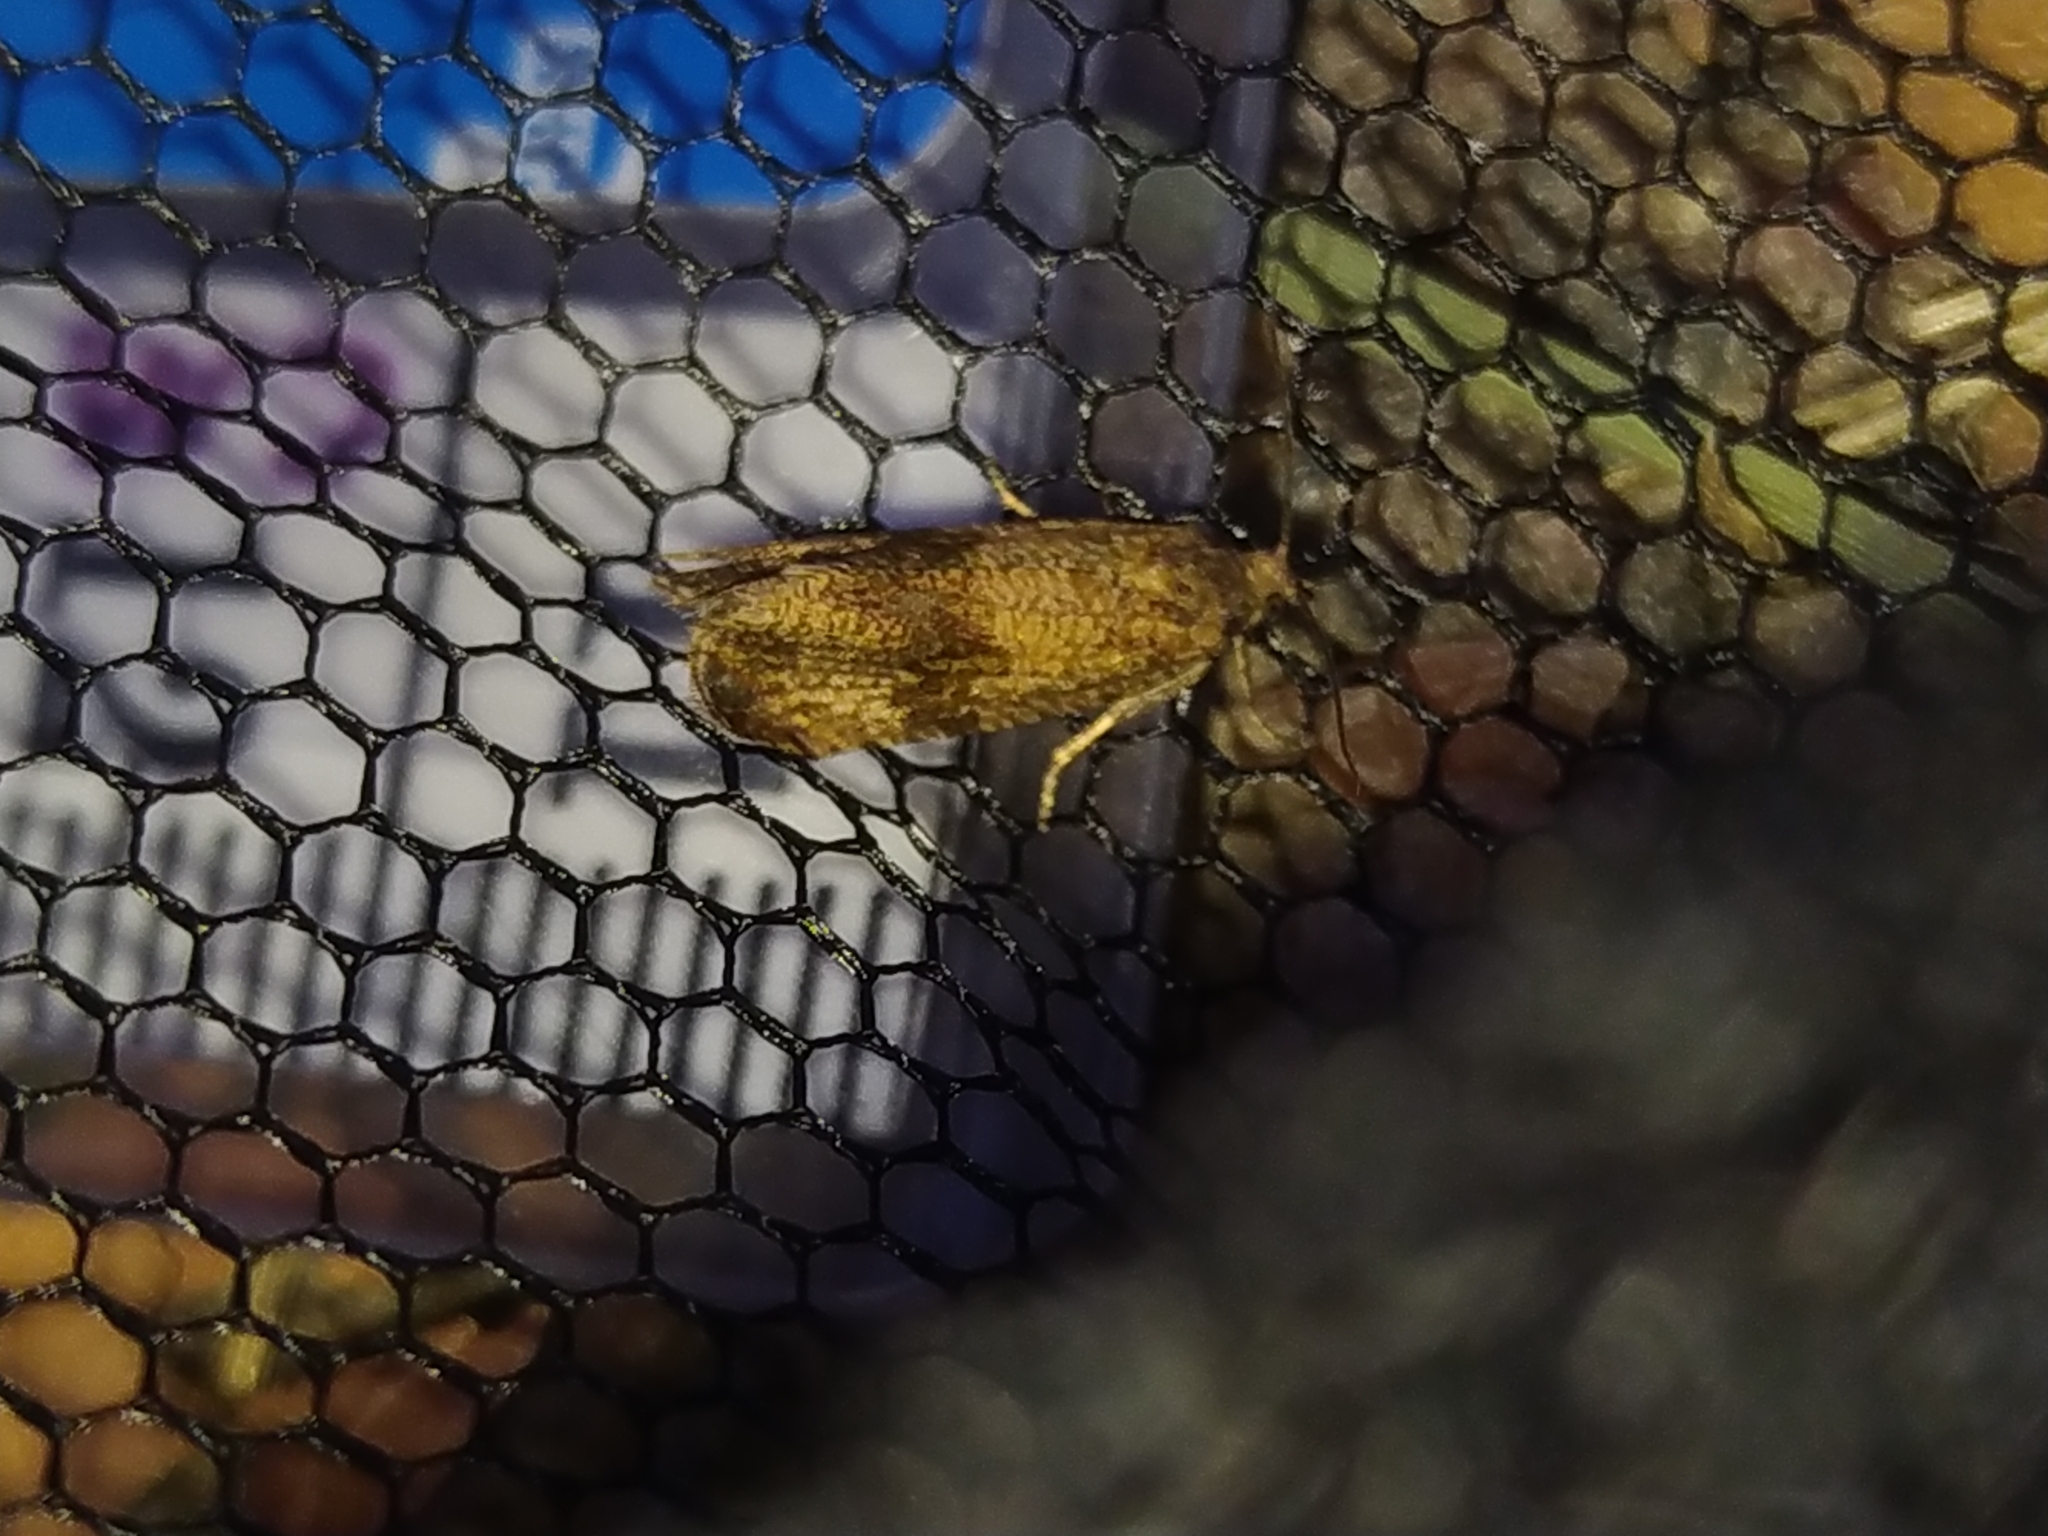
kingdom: Animalia
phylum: Arthropoda
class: Insecta
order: Lepidoptera
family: Tortricidae
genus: Celypha
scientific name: Celypha striana
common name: Barred marble
